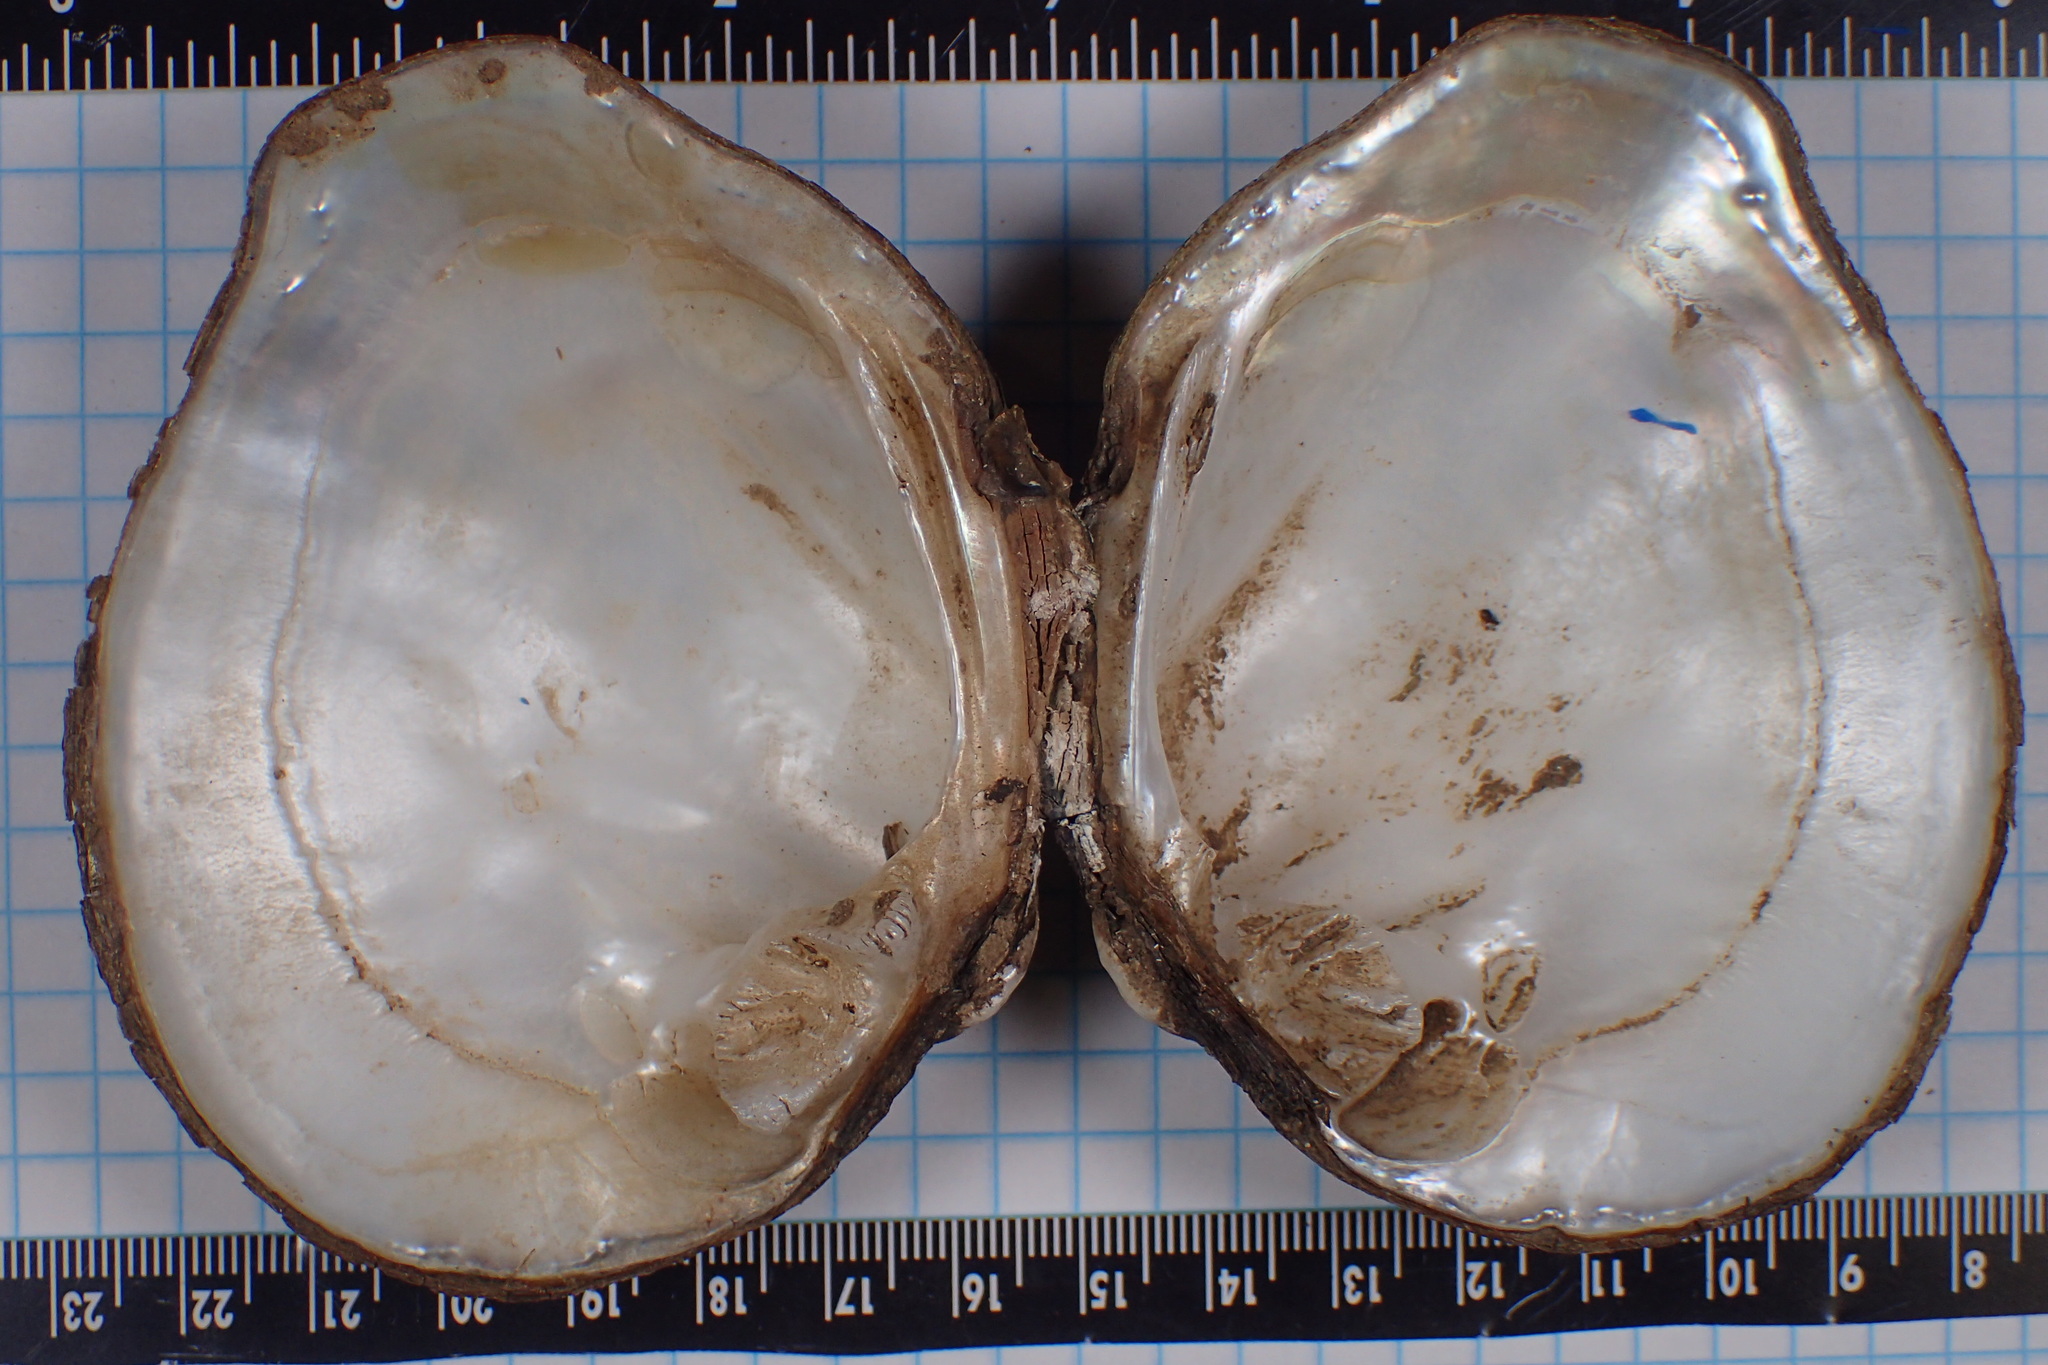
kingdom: Animalia
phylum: Mollusca
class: Bivalvia
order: Unionida
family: Unionidae
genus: Quadrula
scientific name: Quadrula quadrula
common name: Mapleleaf
